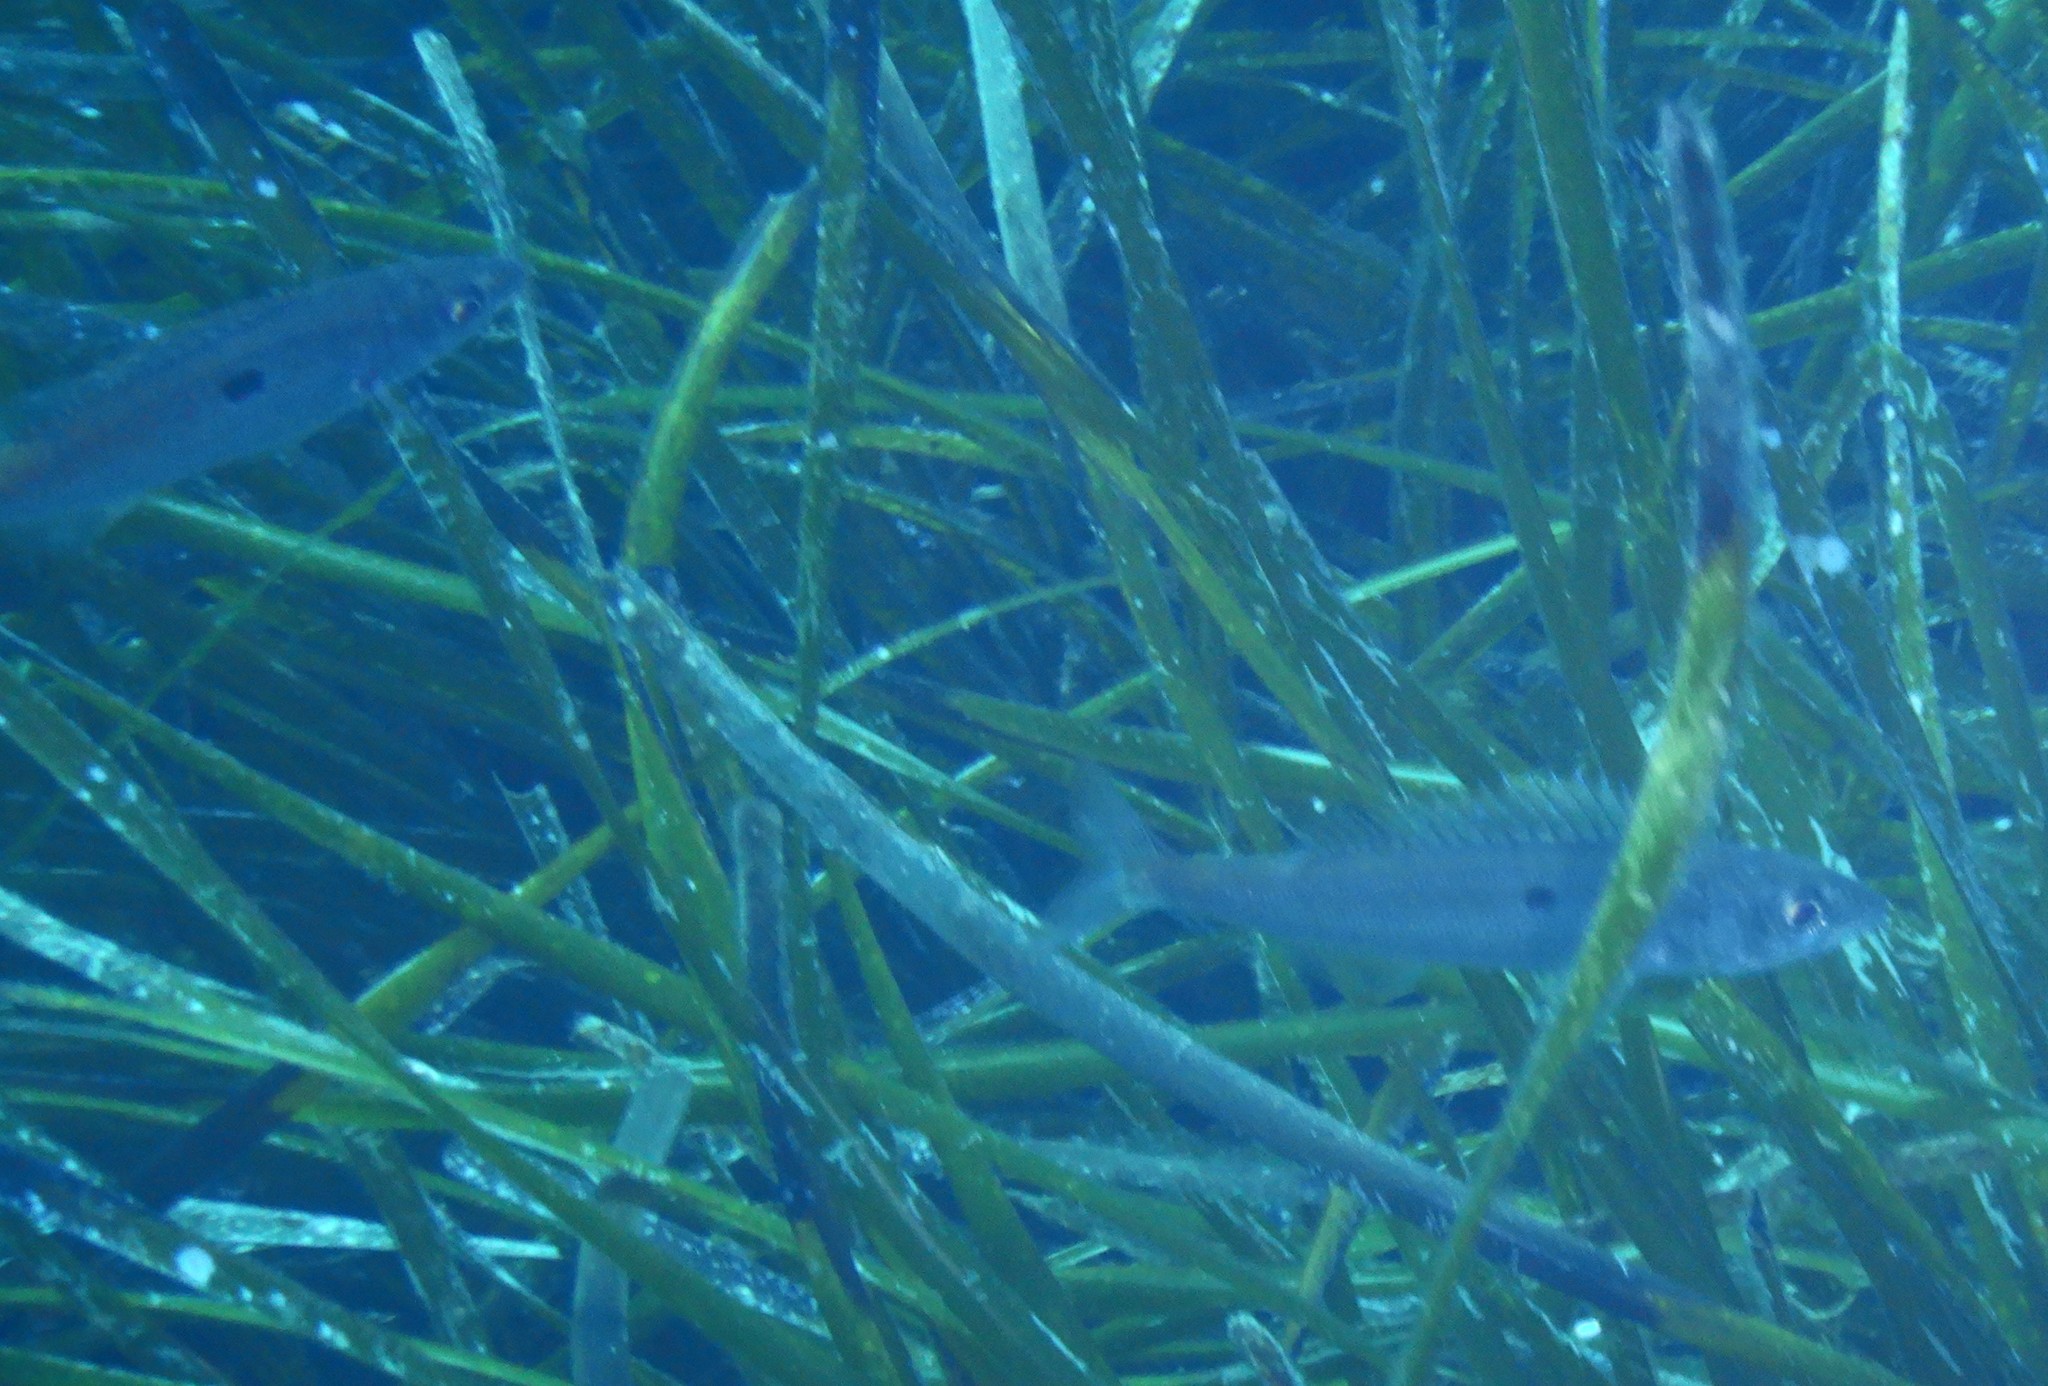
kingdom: Animalia
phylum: Chordata
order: Perciformes
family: Sparidae
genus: Spicara
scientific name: Spicara smaris
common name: Picarel
